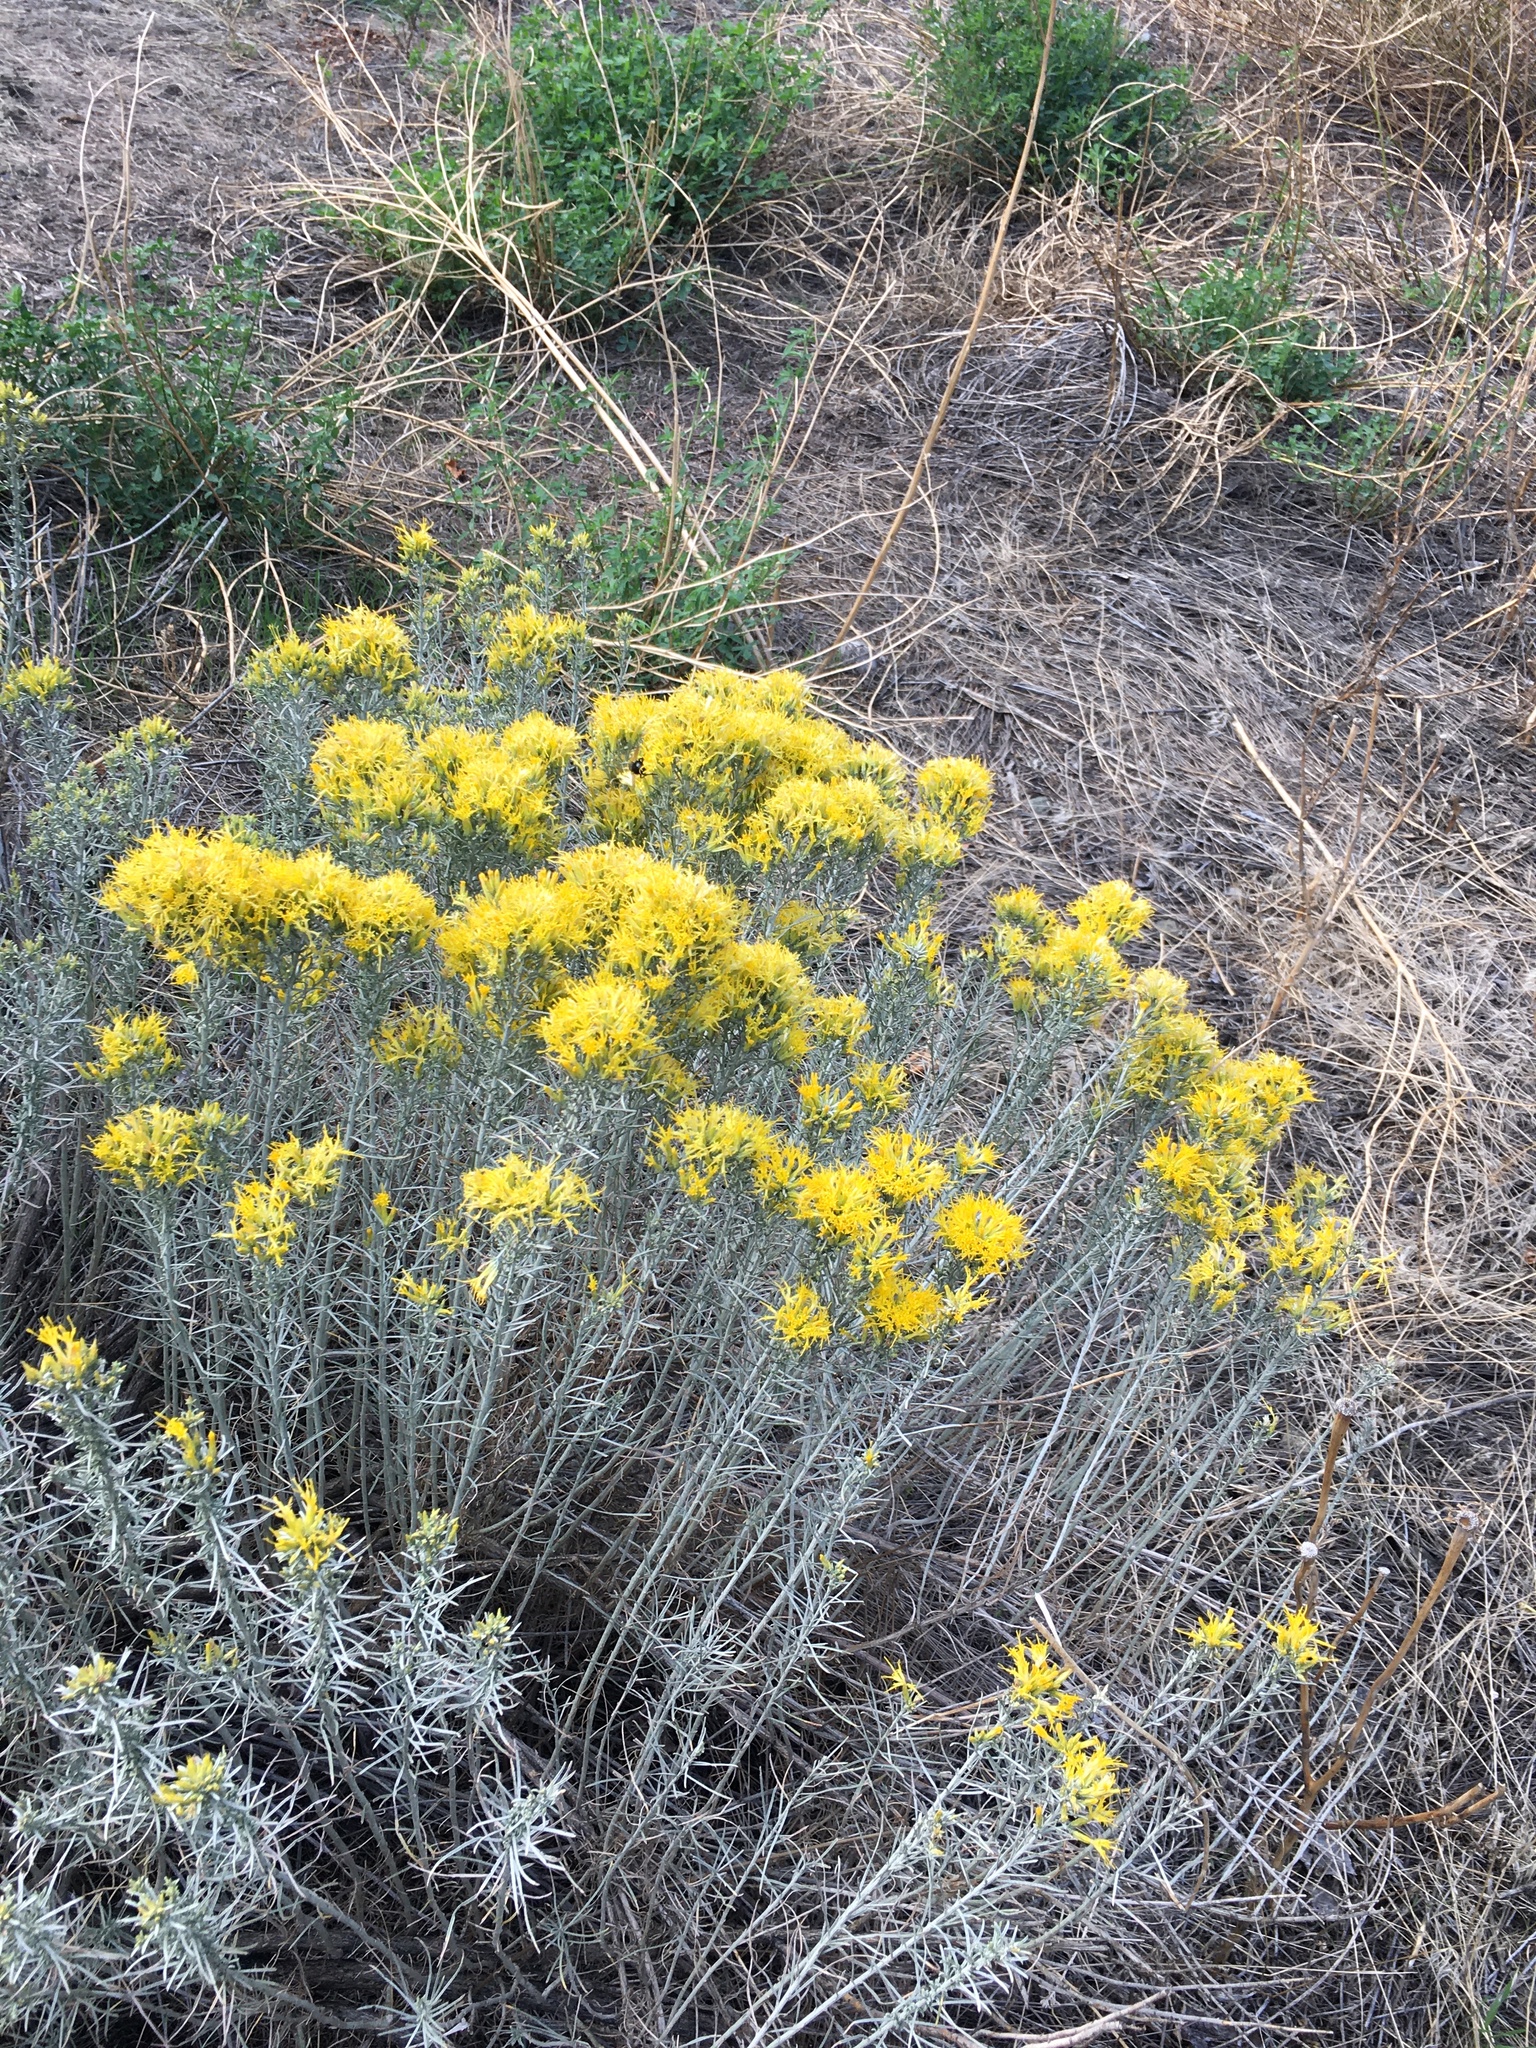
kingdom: Plantae
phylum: Tracheophyta
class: Magnoliopsida
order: Asterales
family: Asteraceae
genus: Ericameria
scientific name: Ericameria nauseosa
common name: Rubber rabbitbrush
